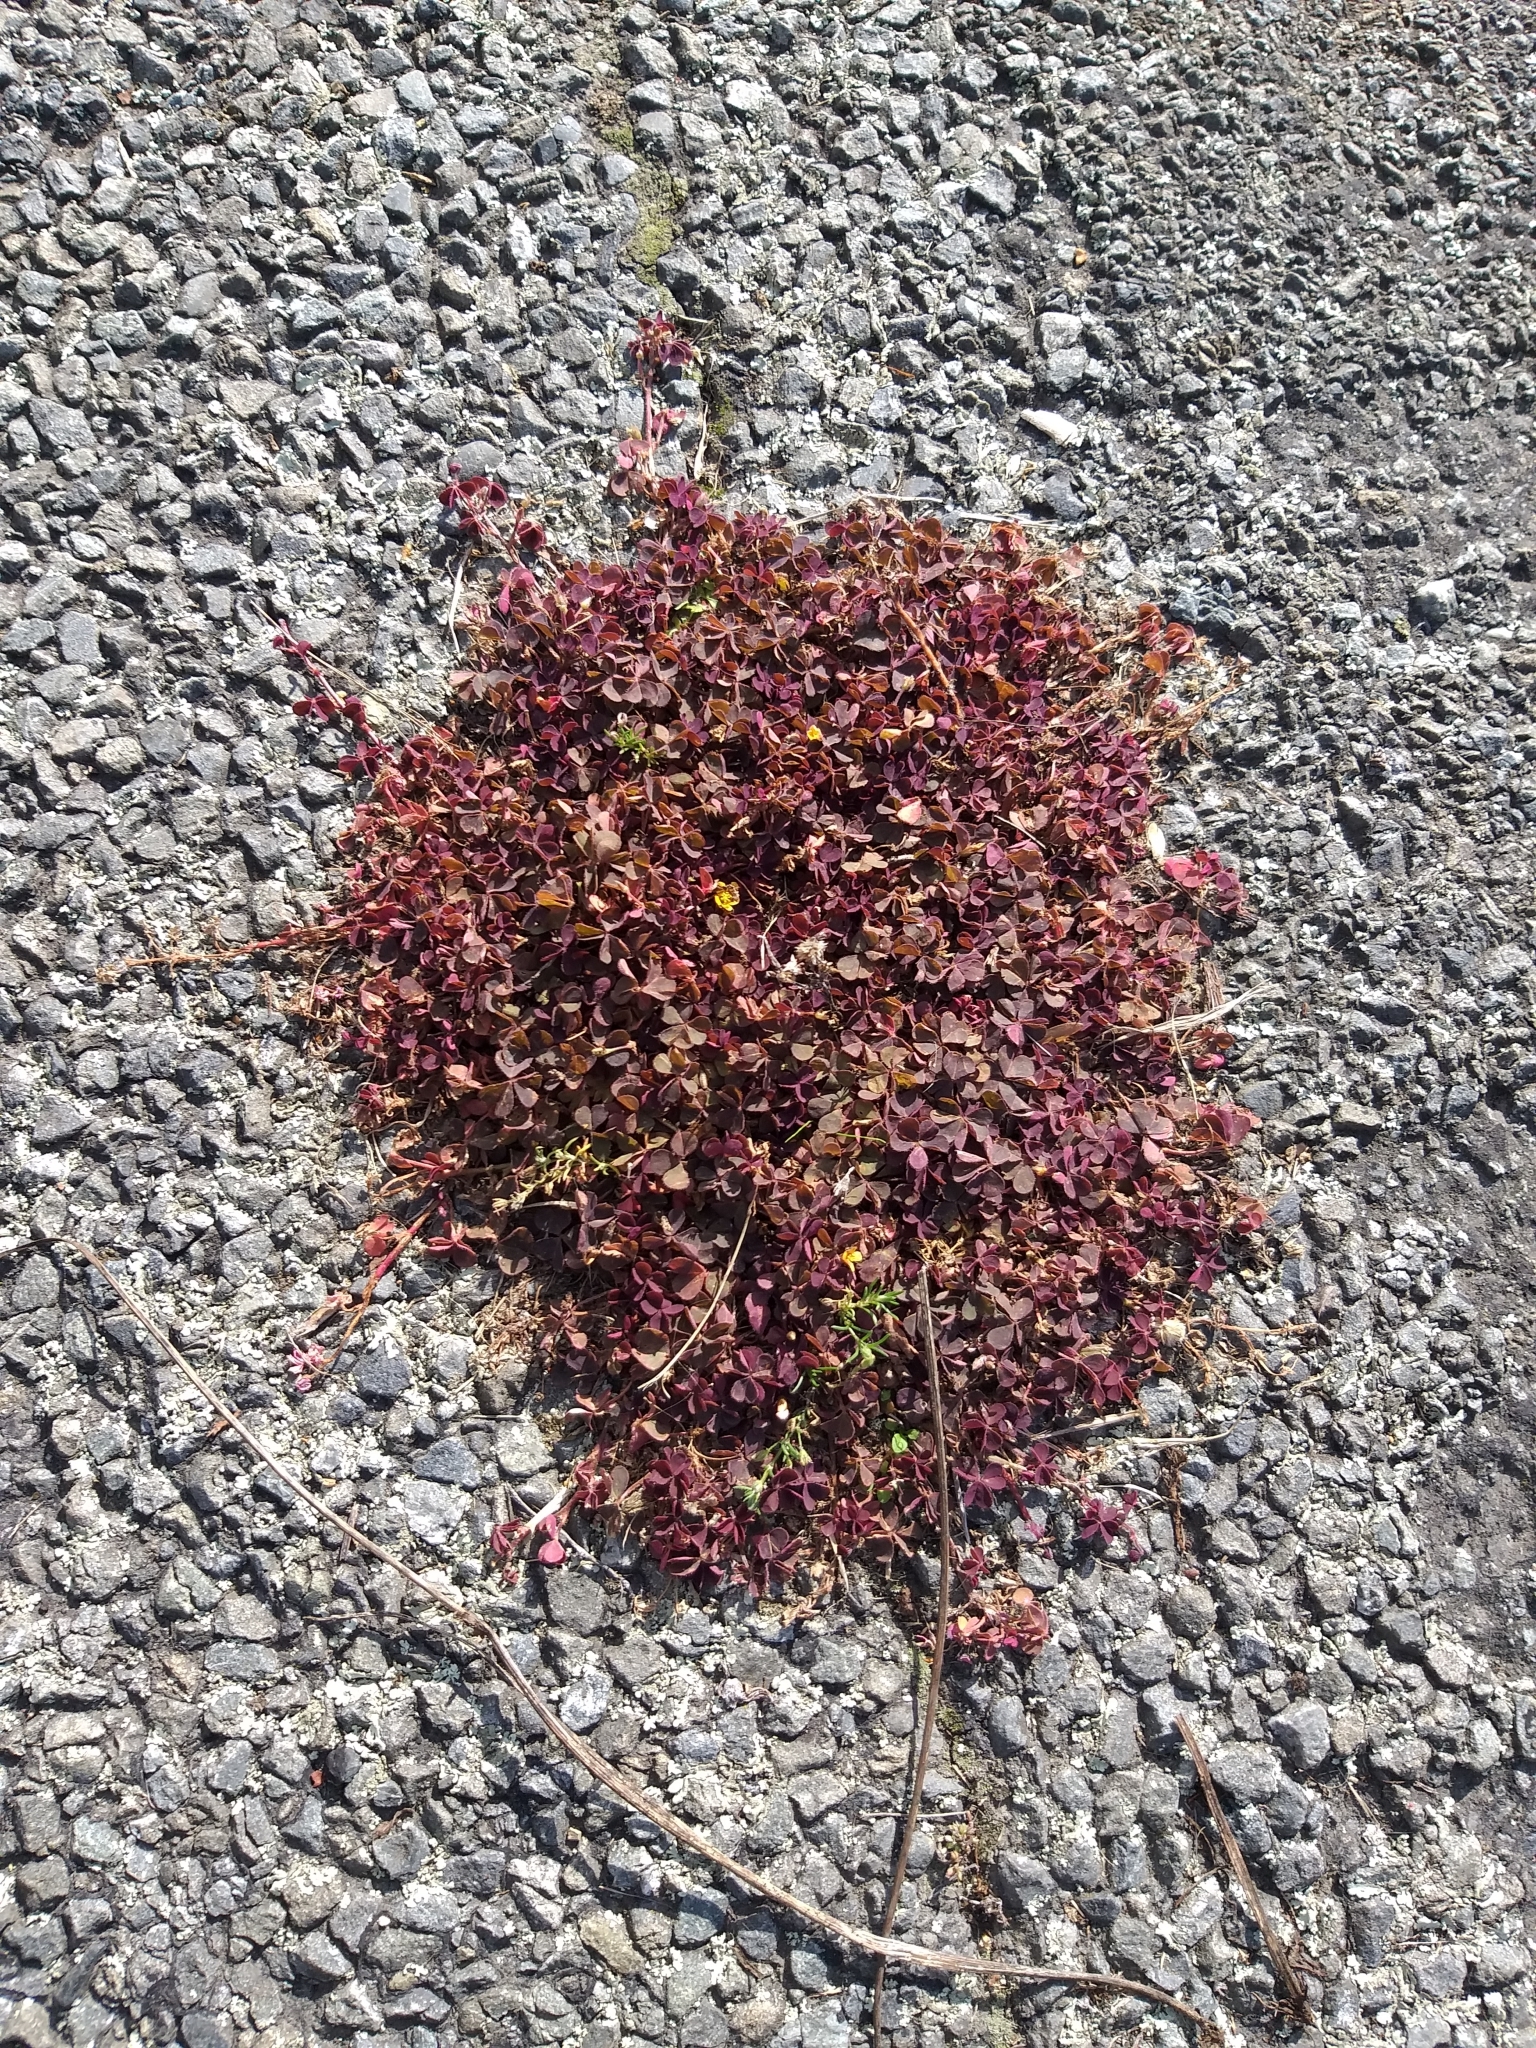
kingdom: Plantae
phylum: Tracheophyta
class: Magnoliopsida
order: Oxalidales
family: Oxalidaceae
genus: Oxalis
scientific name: Oxalis corniculata
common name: Procumbent yellow-sorrel
